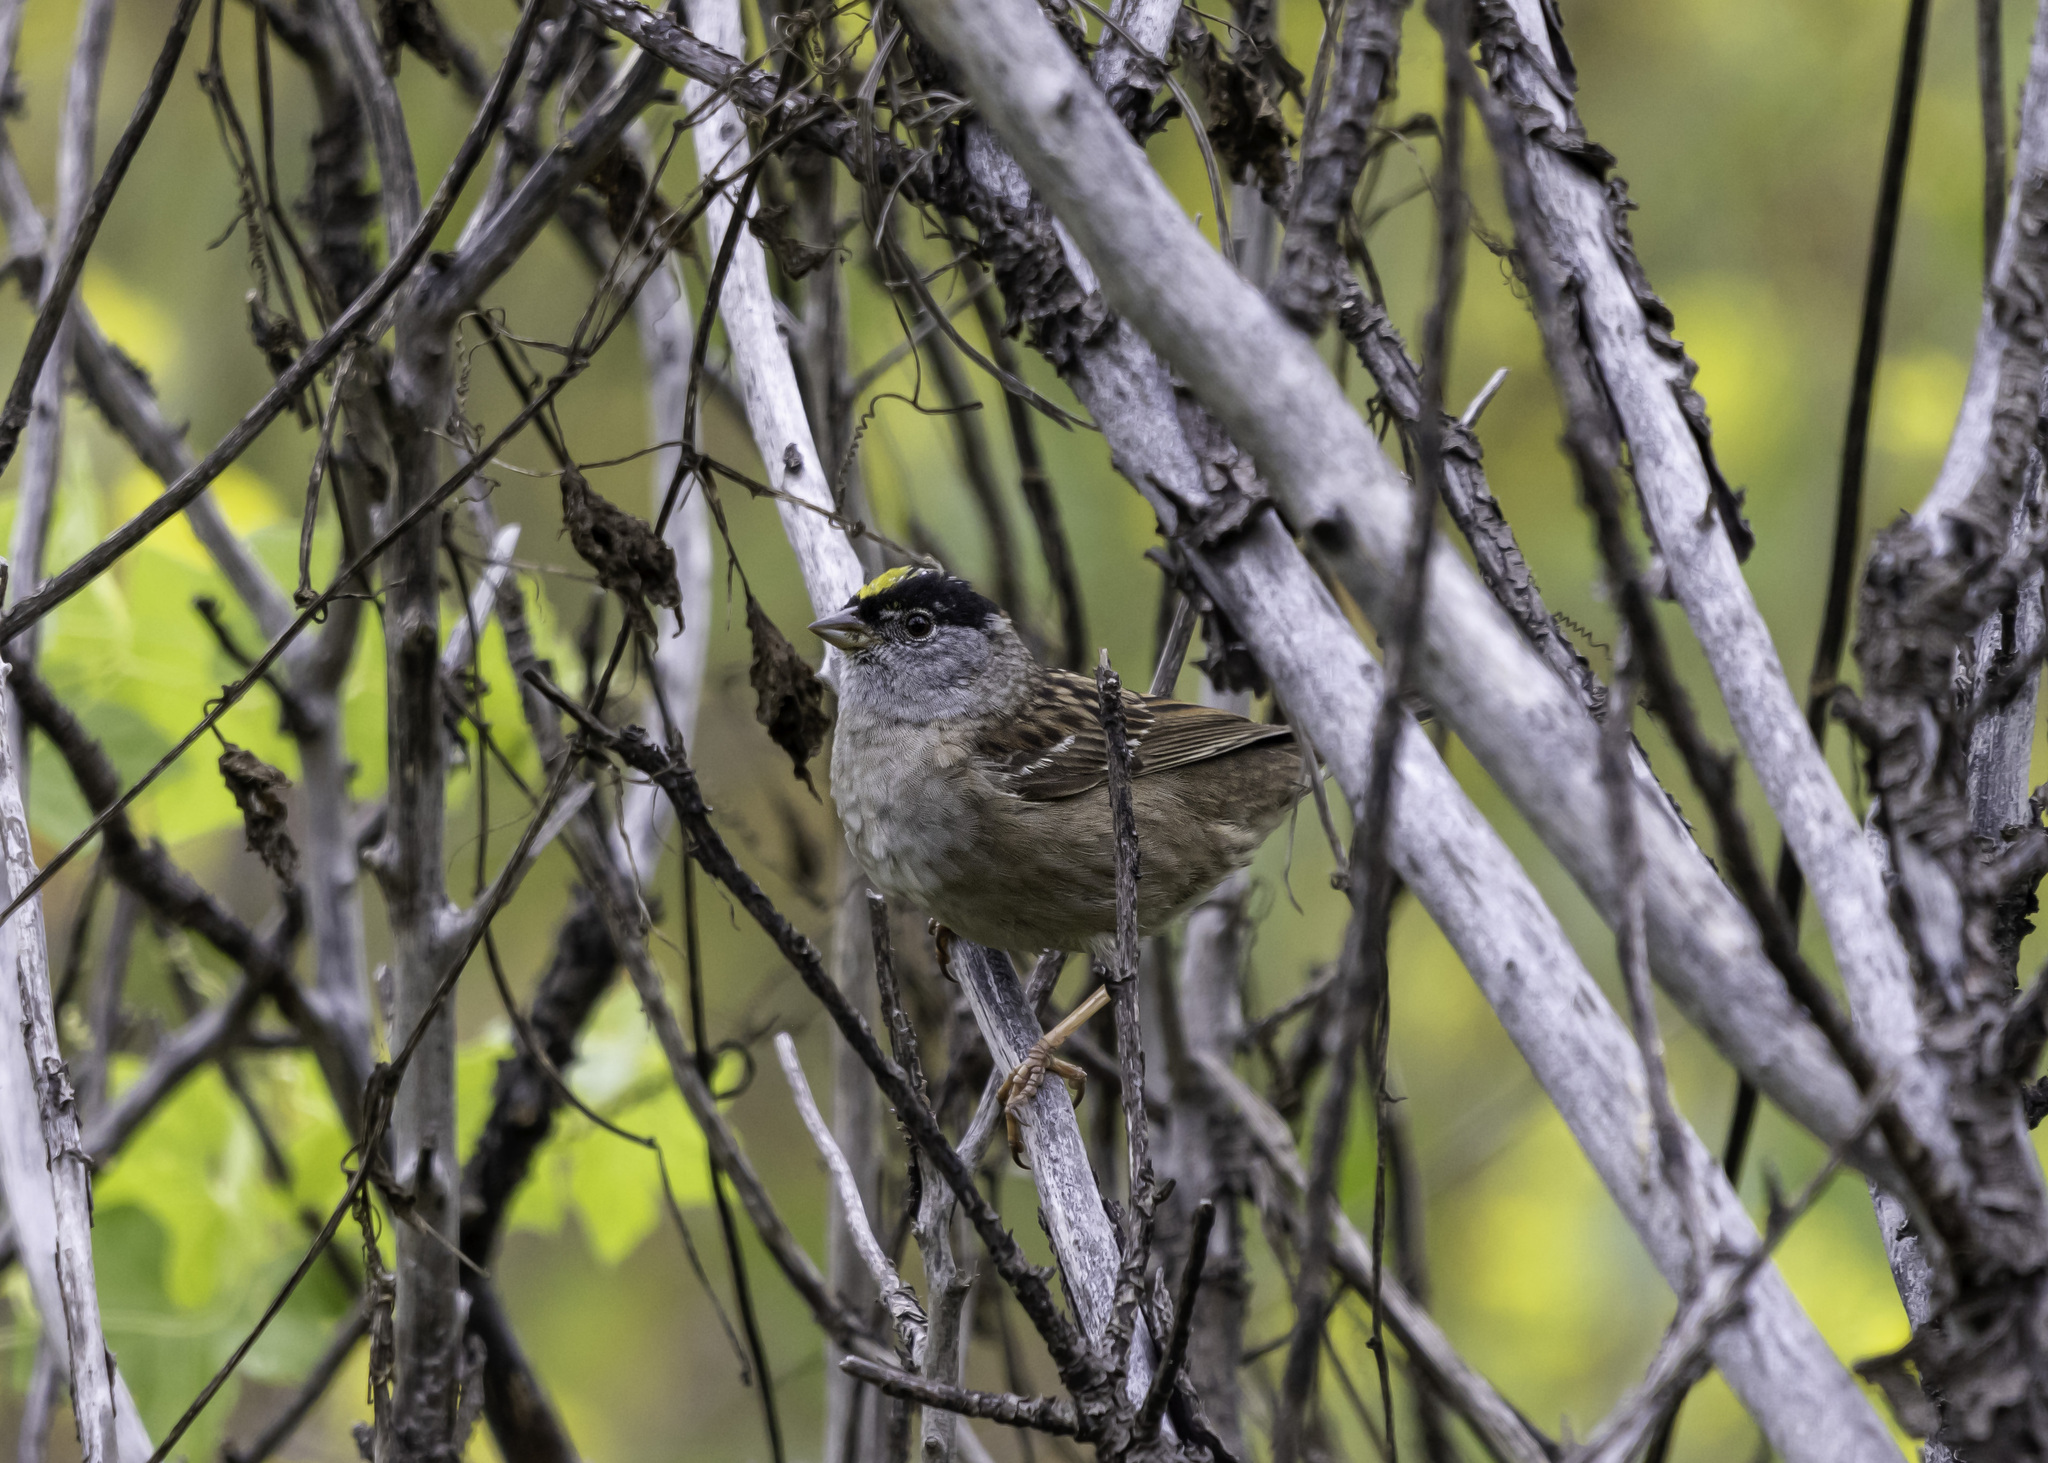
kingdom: Animalia
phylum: Chordata
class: Aves
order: Passeriformes
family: Passerellidae
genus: Zonotrichia
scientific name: Zonotrichia atricapilla
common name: Golden-crowned sparrow
